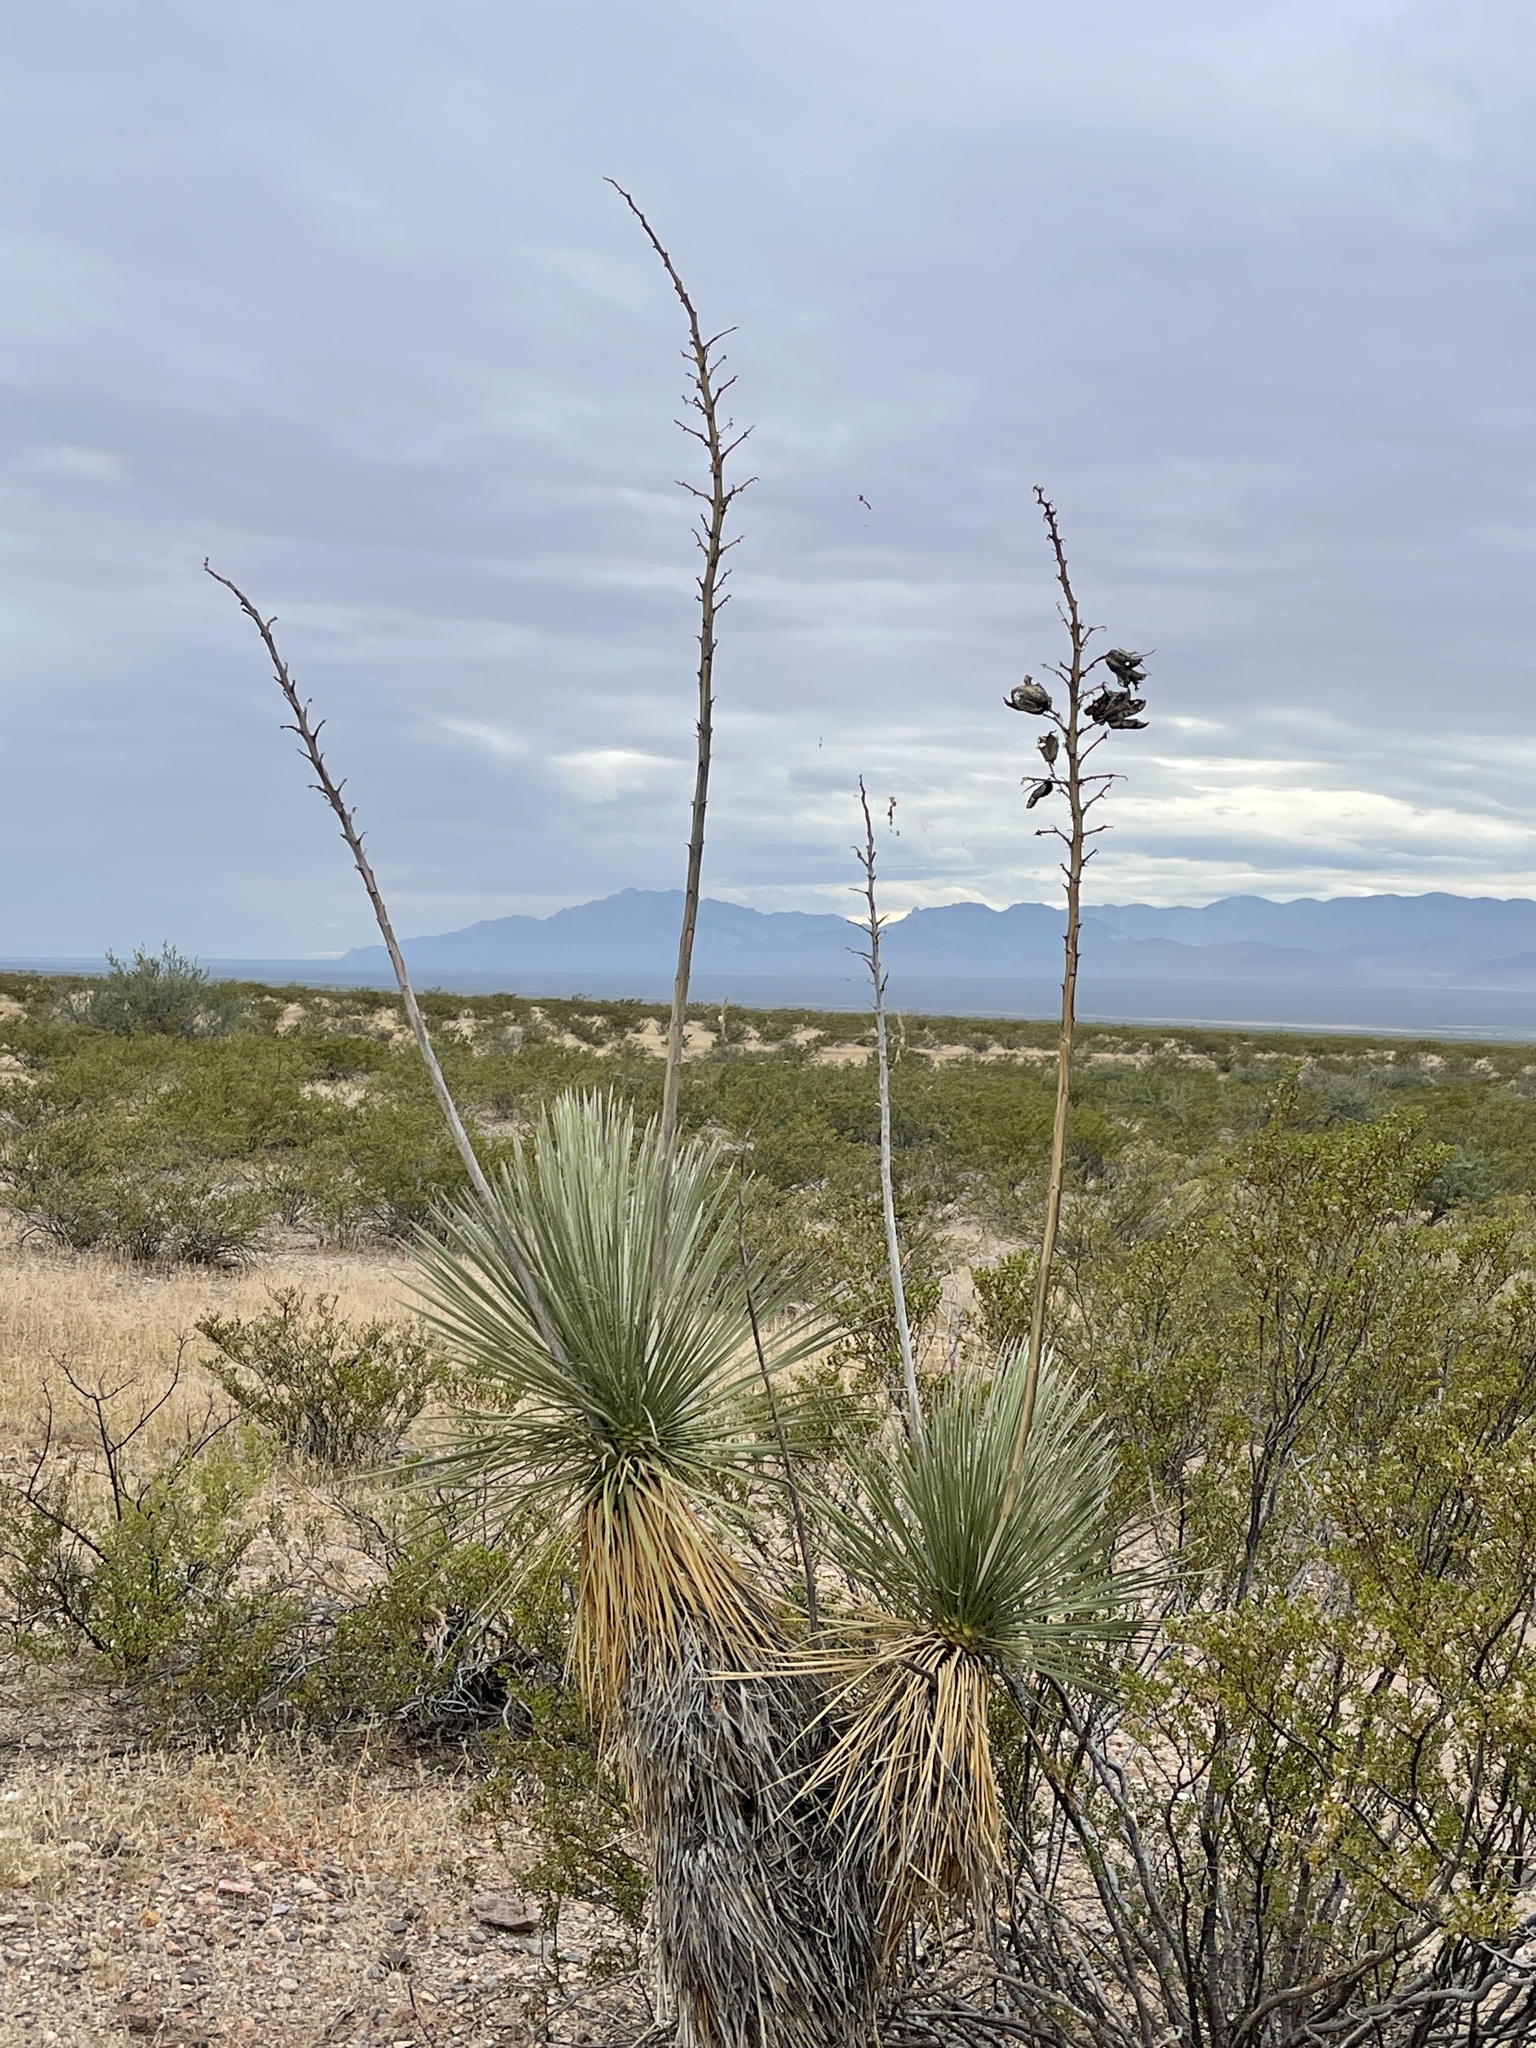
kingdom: Plantae
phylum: Tracheophyta
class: Liliopsida
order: Asparagales
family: Asparagaceae
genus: Yucca
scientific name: Yucca elata
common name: Palmella
